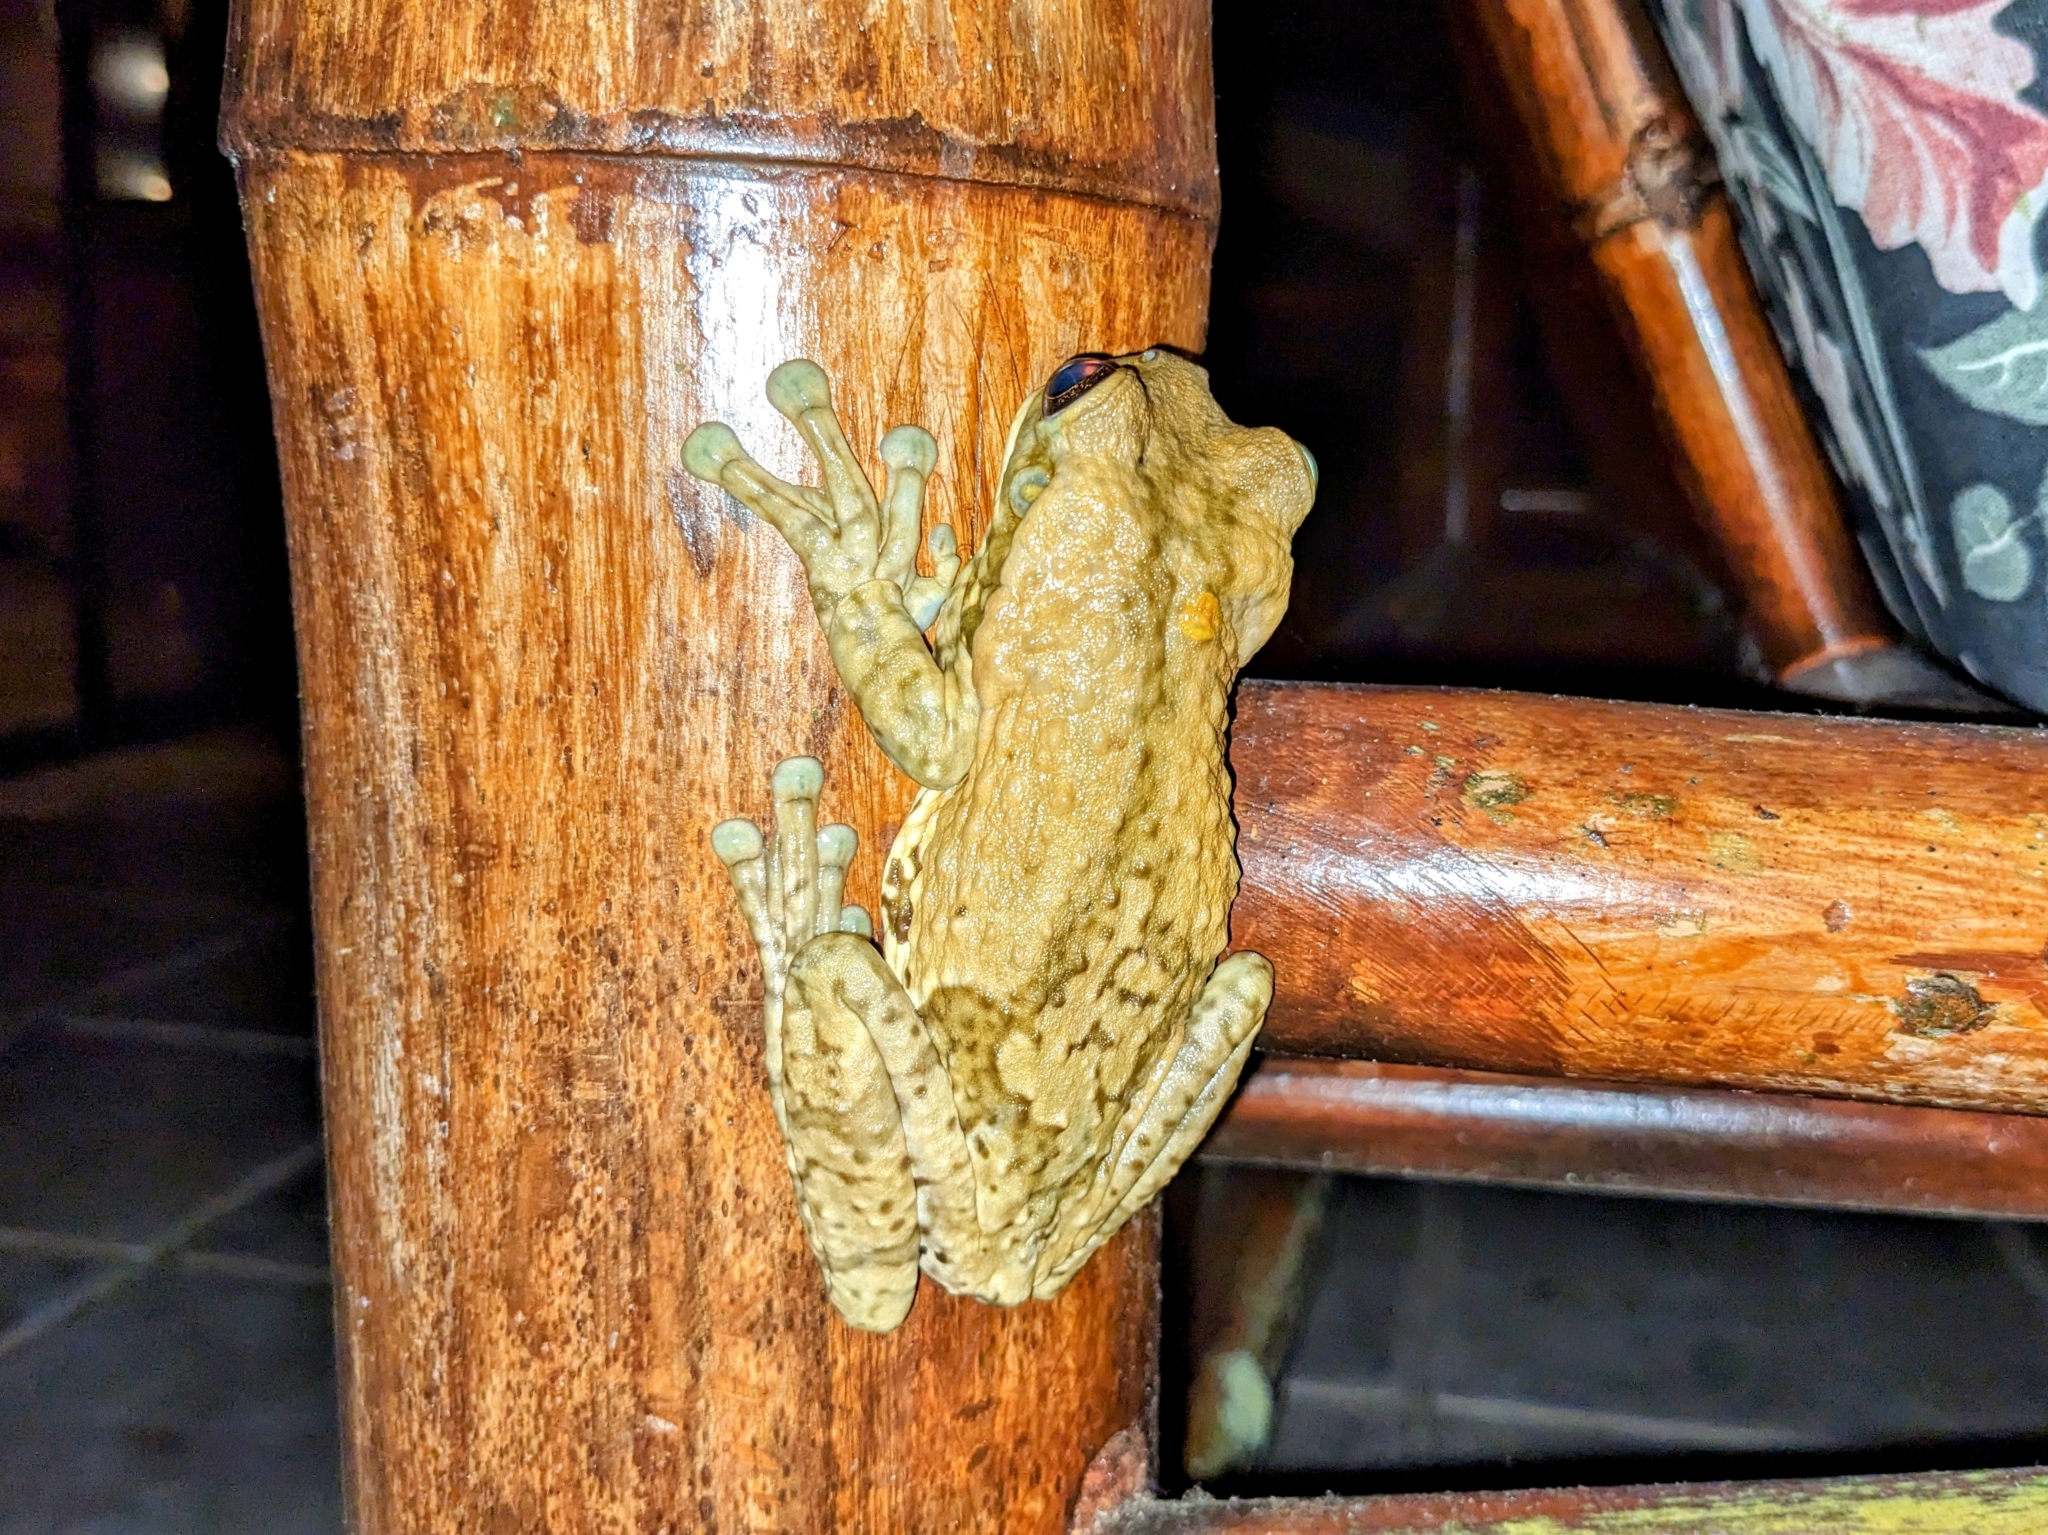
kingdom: Animalia
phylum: Chordata
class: Amphibia
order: Anura
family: Hylidae
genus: Trachycephalus
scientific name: Trachycephalus vermiculatus
